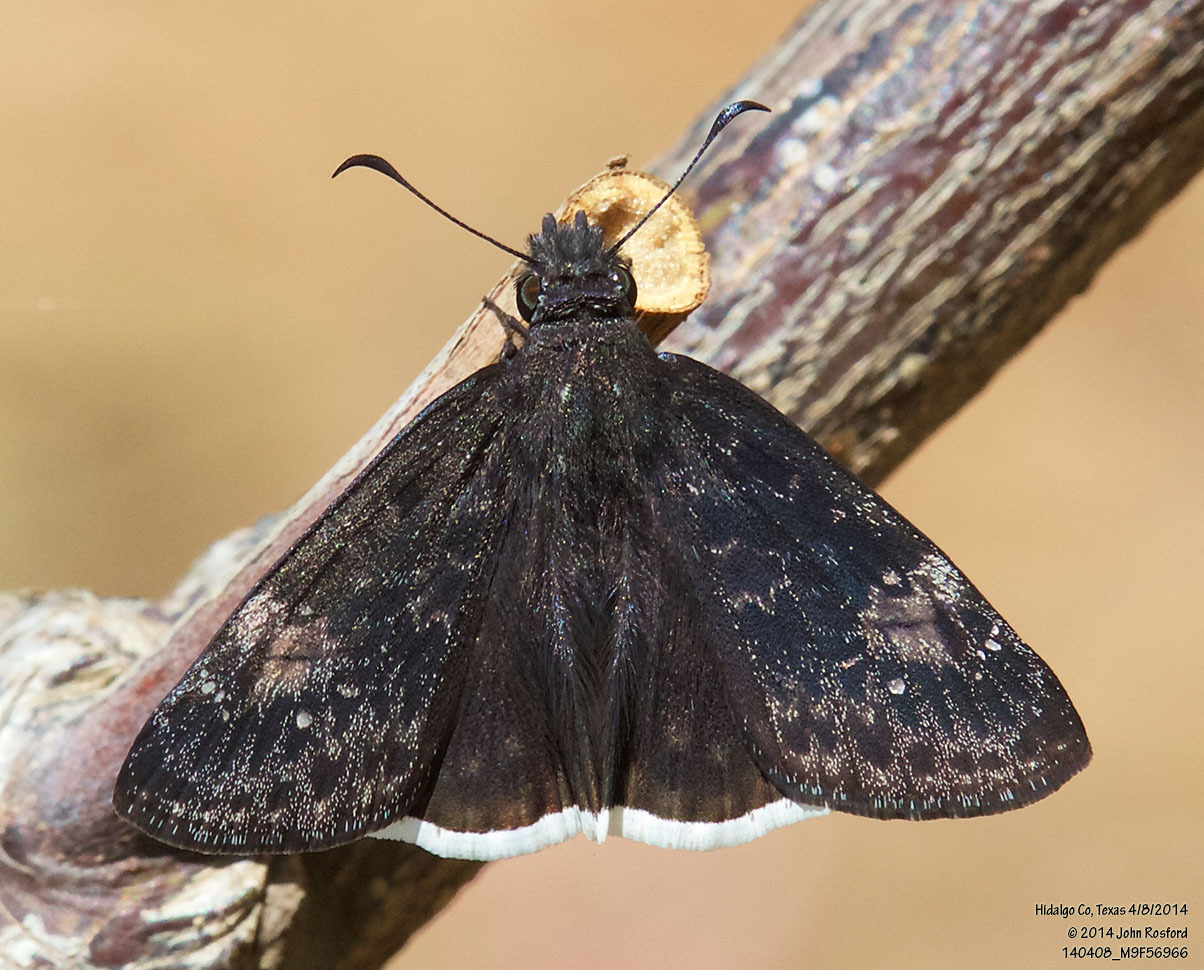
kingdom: Animalia
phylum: Arthropoda
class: Insecta
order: Lepidoptera
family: Hesperiidae
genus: Erynnis
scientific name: Erynnis funeralis
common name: Funereal duskywing
